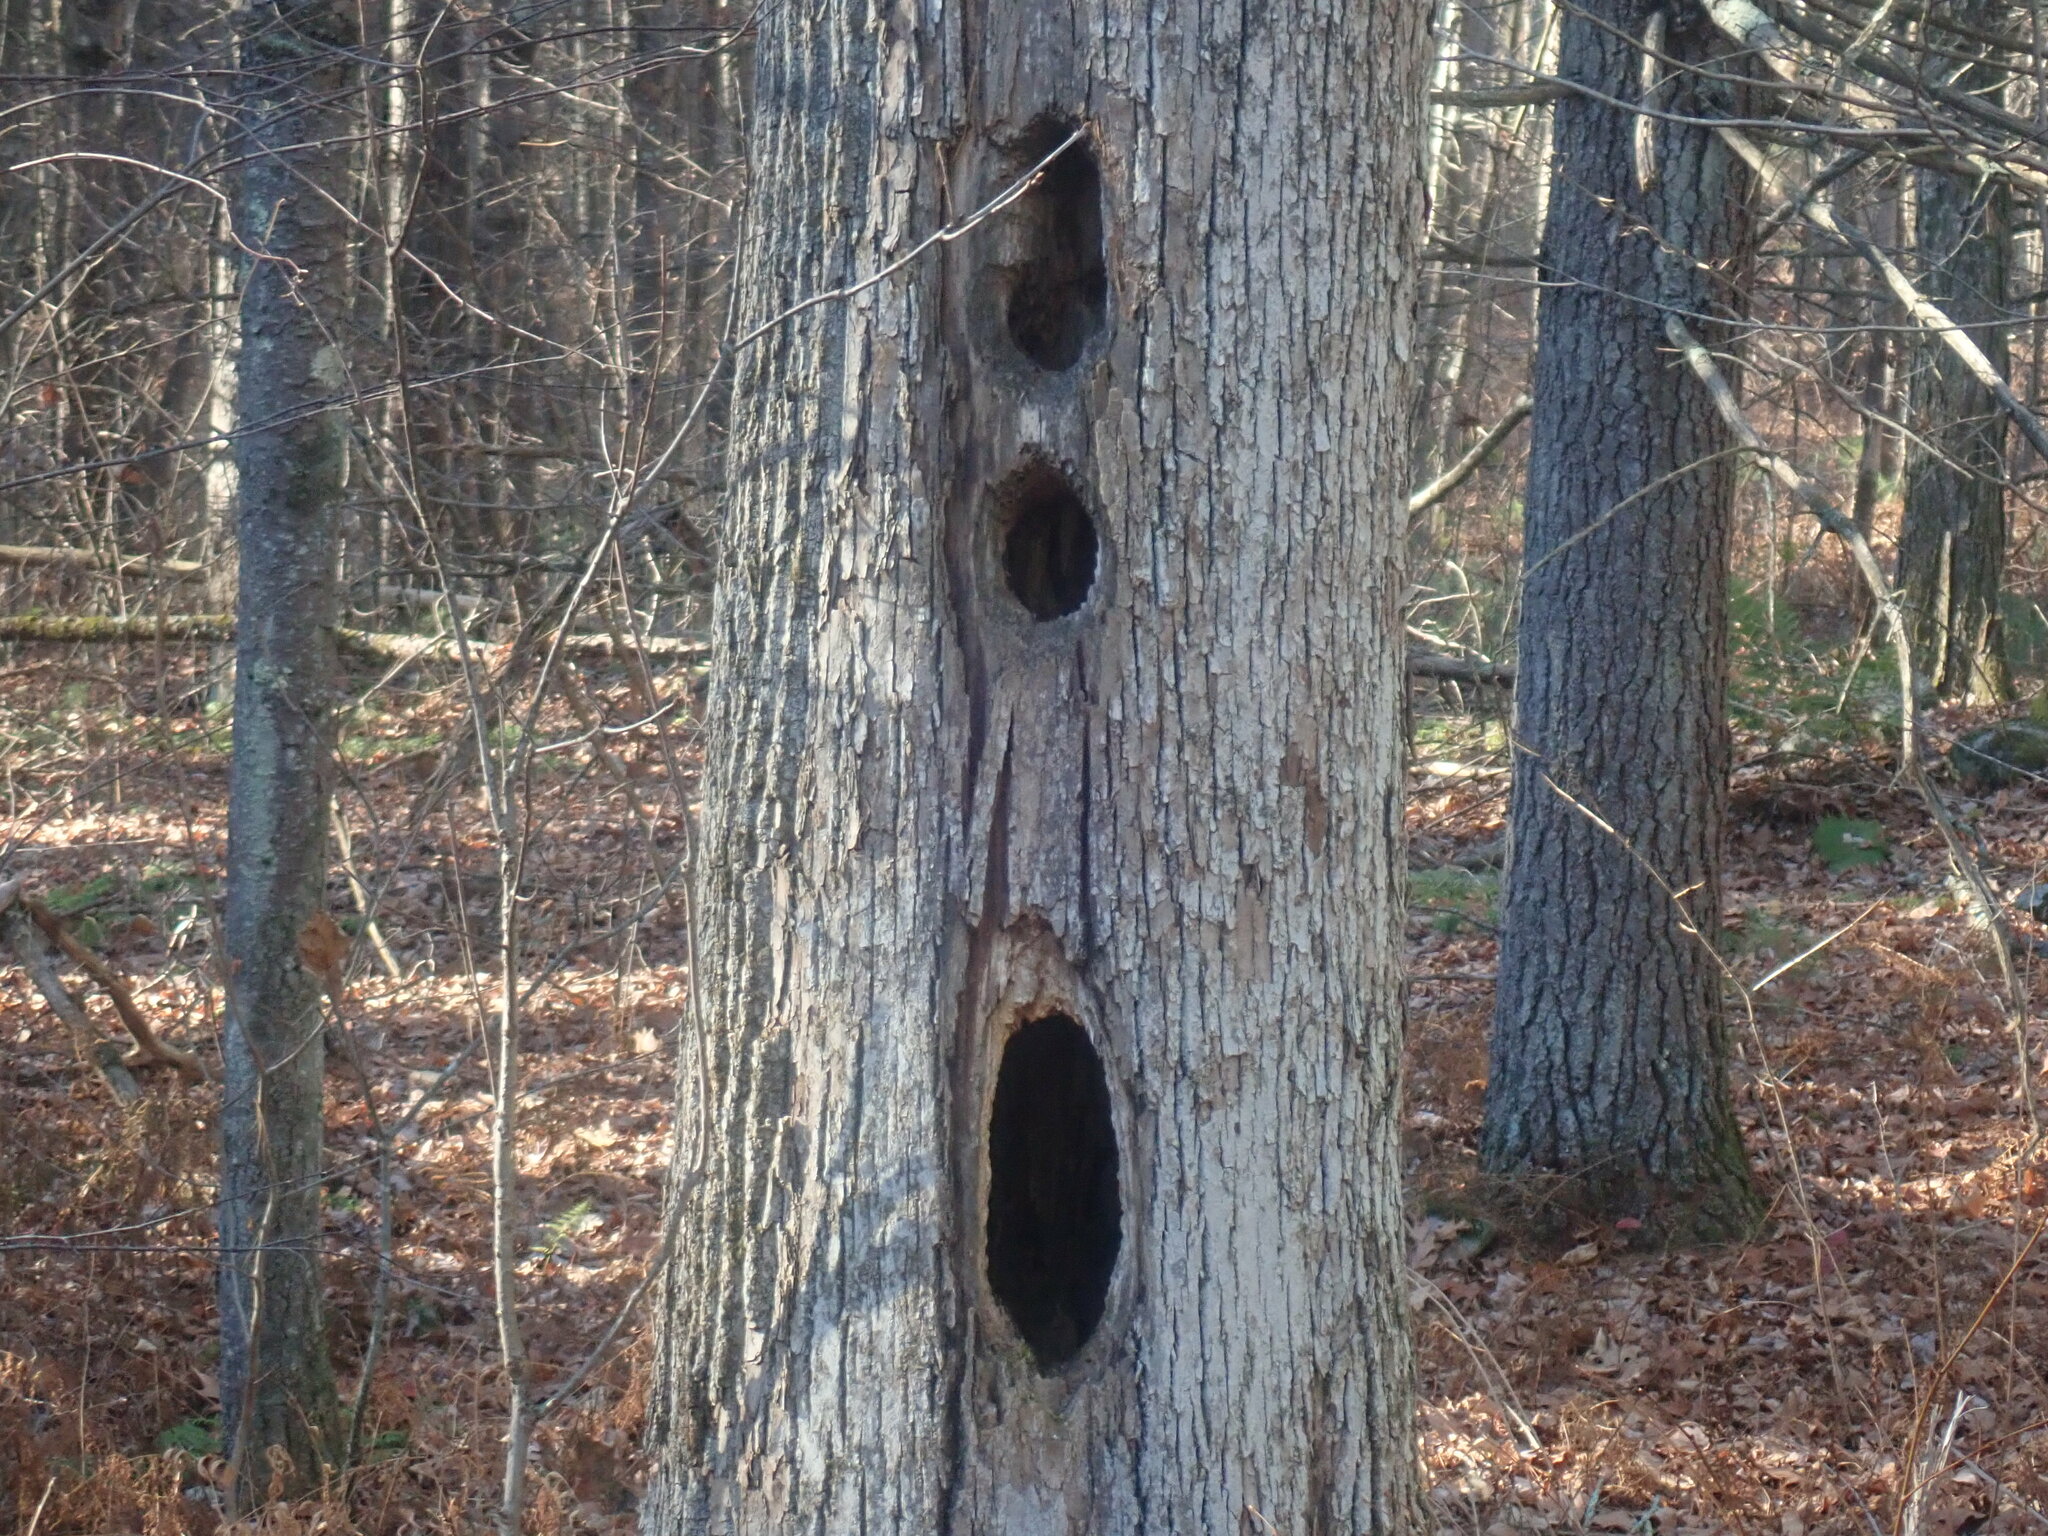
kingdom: Animalia
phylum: Chordata
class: Aves
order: Piciformes
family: Picidae
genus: Dryocopus
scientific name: Dryocopus pileatus
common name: Pileated woodpecker
